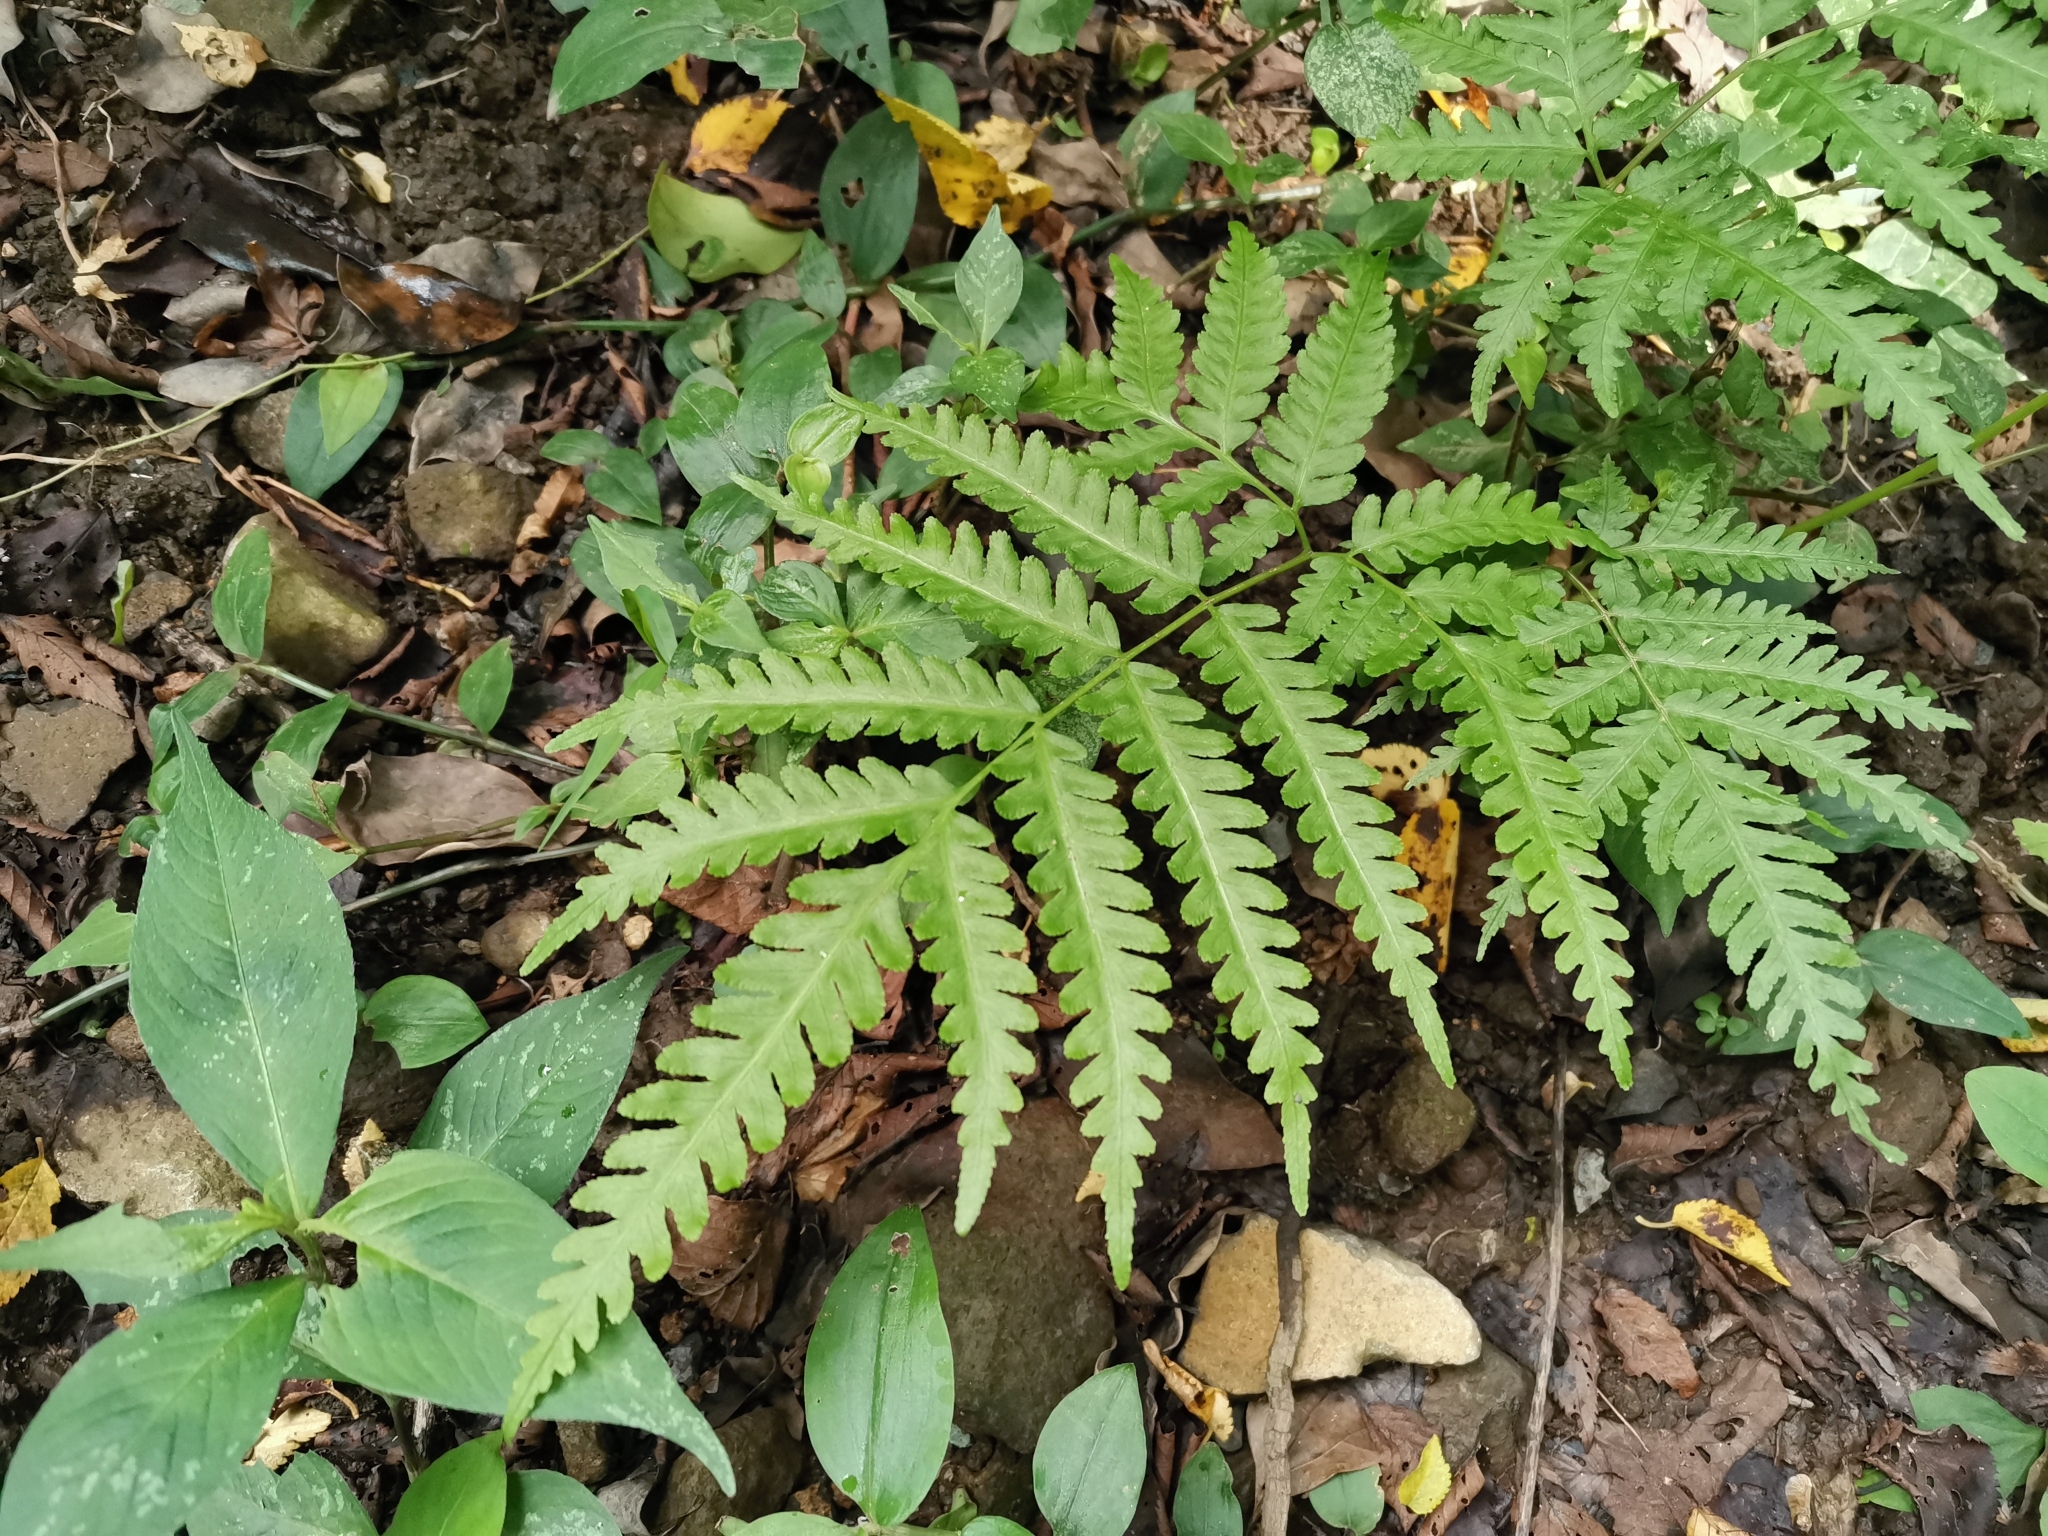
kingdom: Plantae
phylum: Tracheophyta
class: Polypodiopsida
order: Polypodiales
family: Pteridaceae
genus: Pteris
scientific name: Pteris wallichiana
